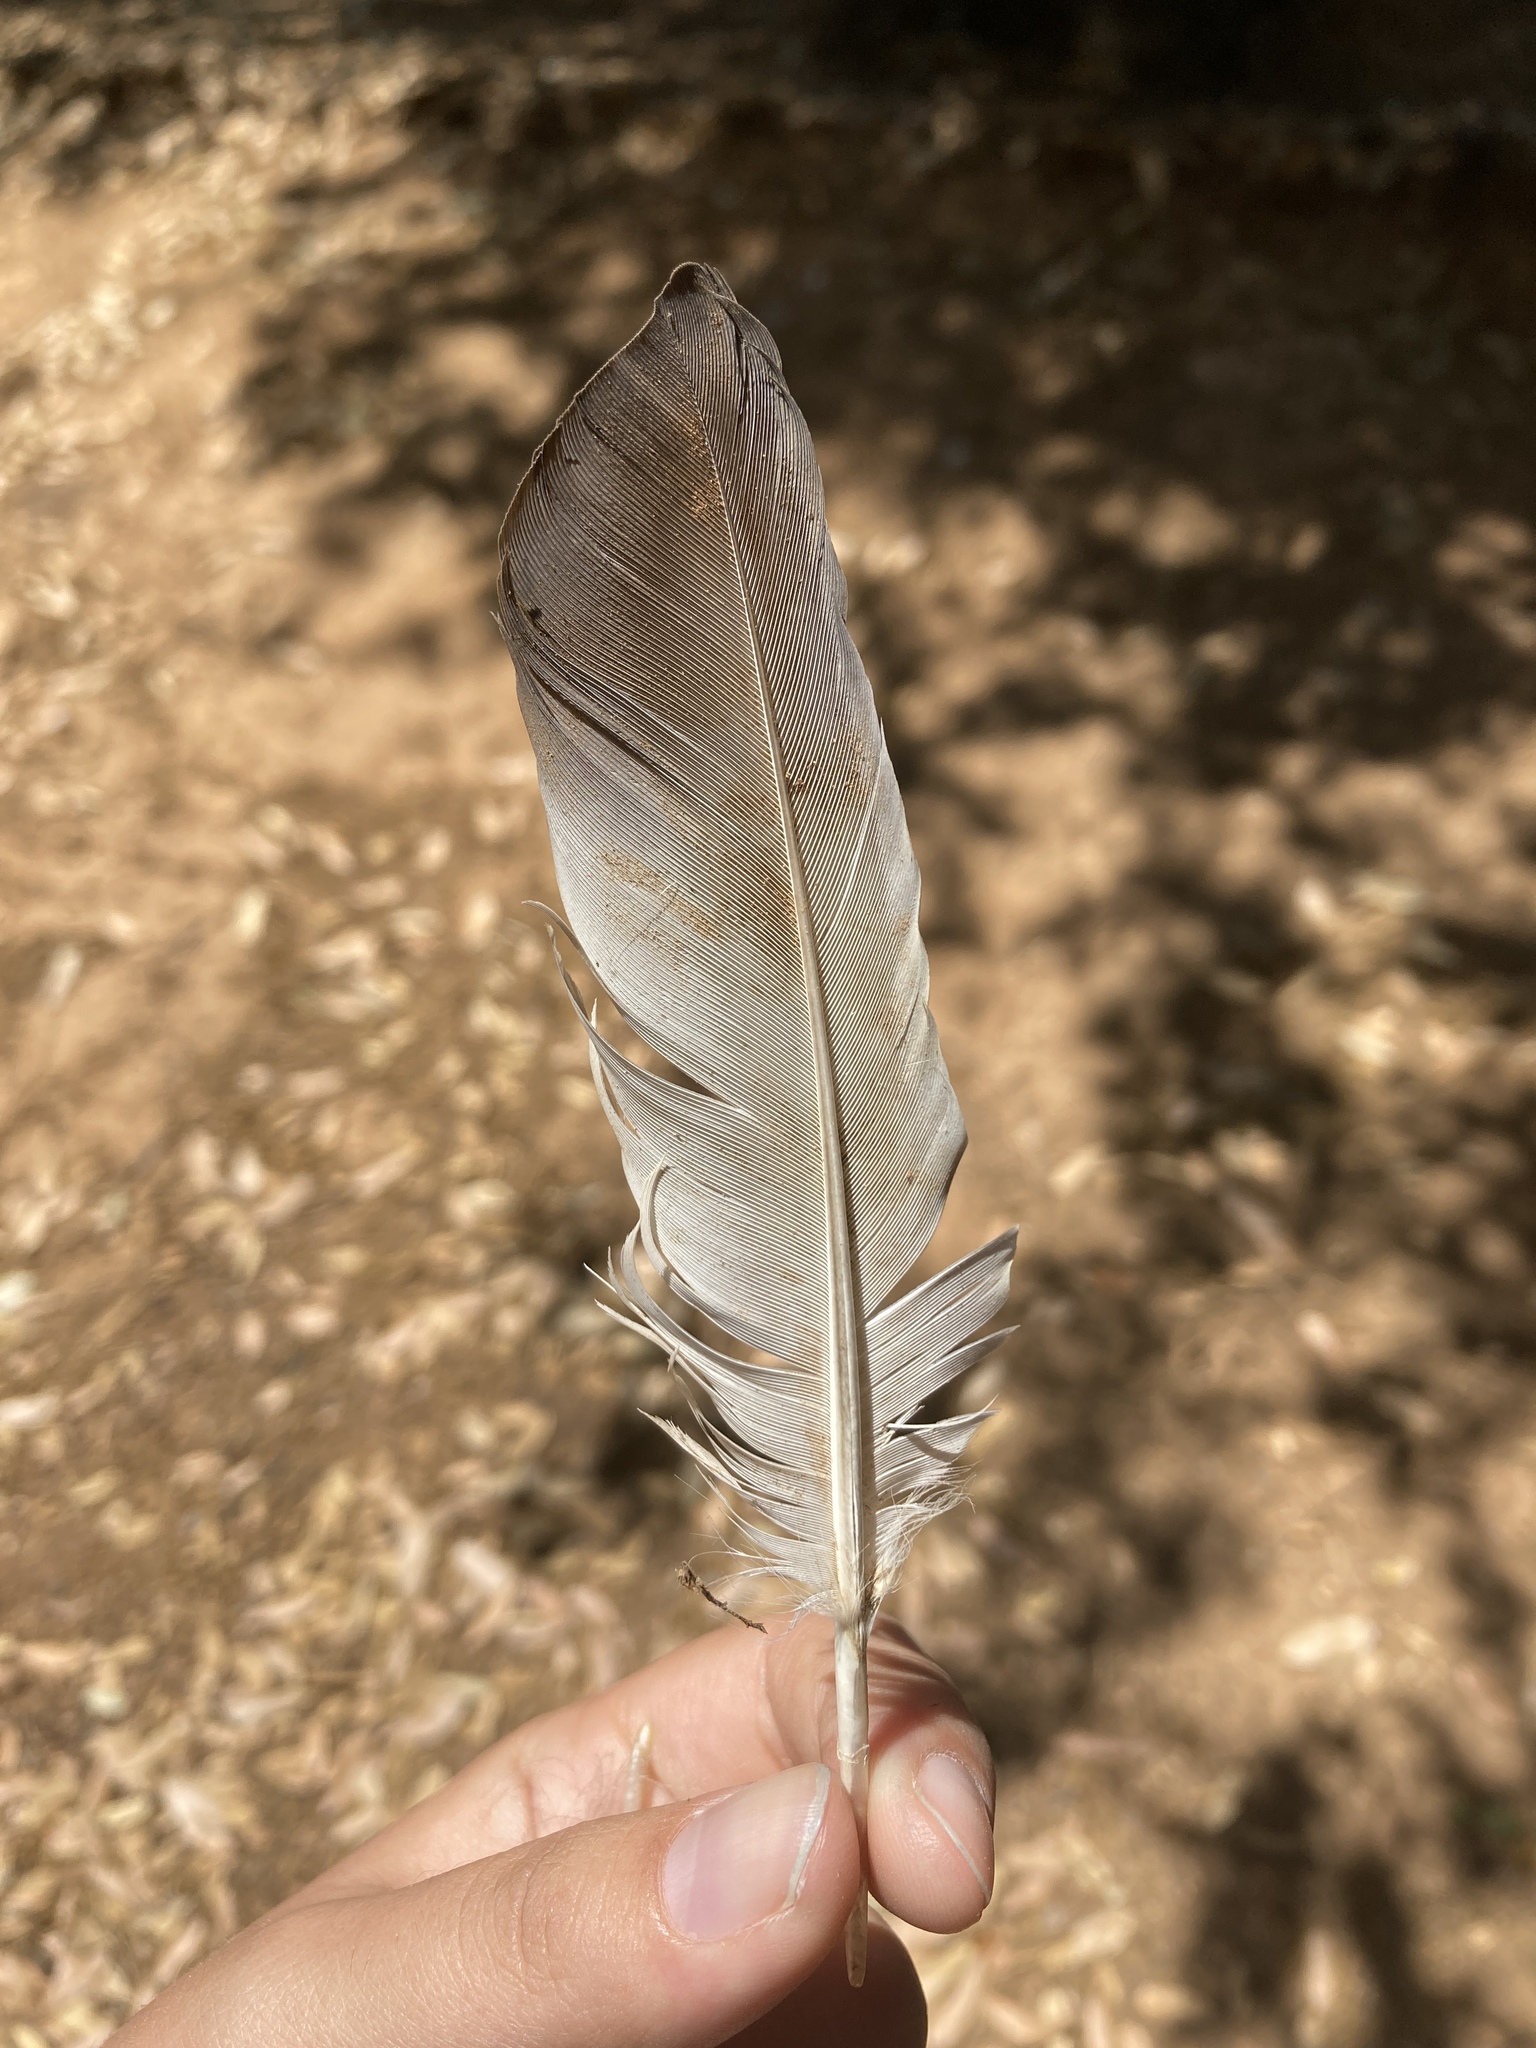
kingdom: Animalia
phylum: Chordata
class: Aves
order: Columbiformes
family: Columbidae
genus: Columba
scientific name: Columba livia
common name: Rock pigeon
